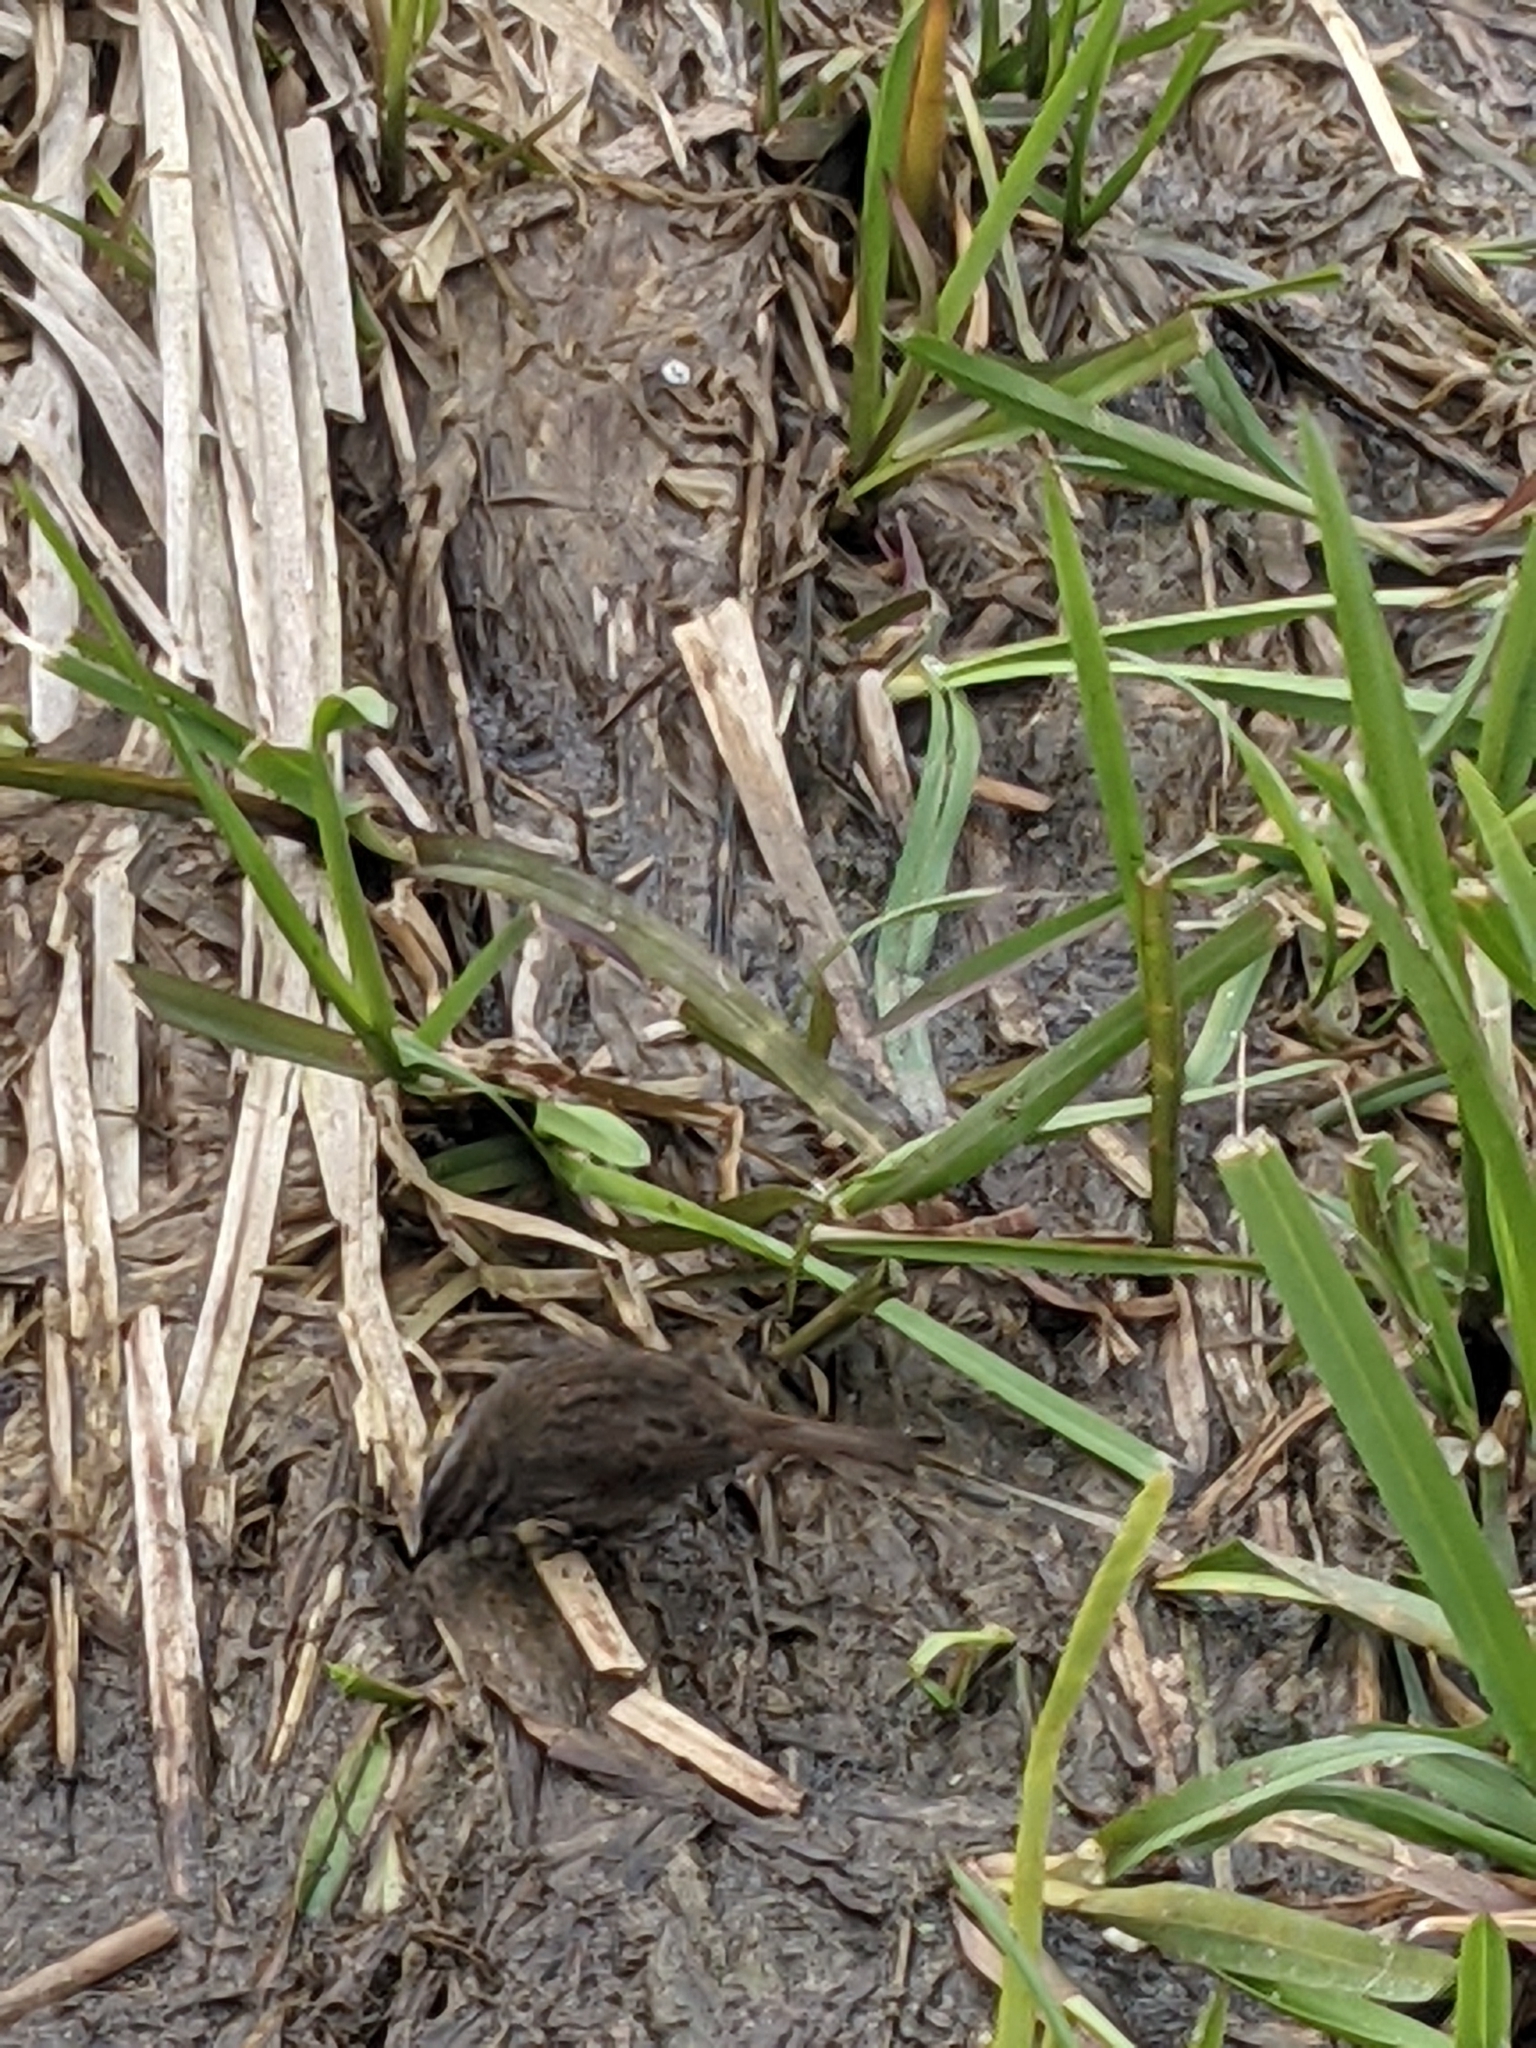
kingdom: Animalia
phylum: Chordata
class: Aves
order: Passeriformes
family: Passerellidae
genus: Melospiza
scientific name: Melospiza melodia
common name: Song sparrow
